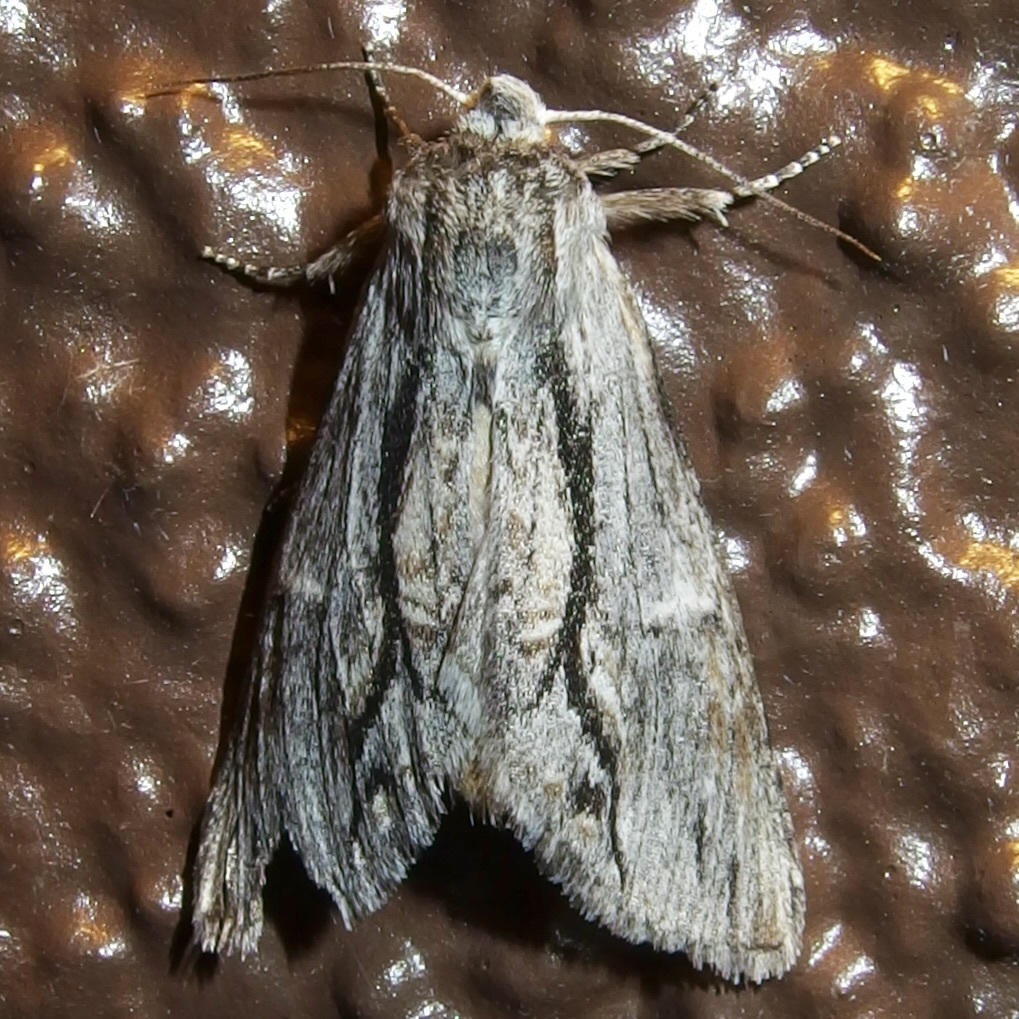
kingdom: Animalia
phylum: Arthropoda
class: Insecta
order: Lepidoptera
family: Notodontidae
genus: Notela
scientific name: Notela jaliscana
